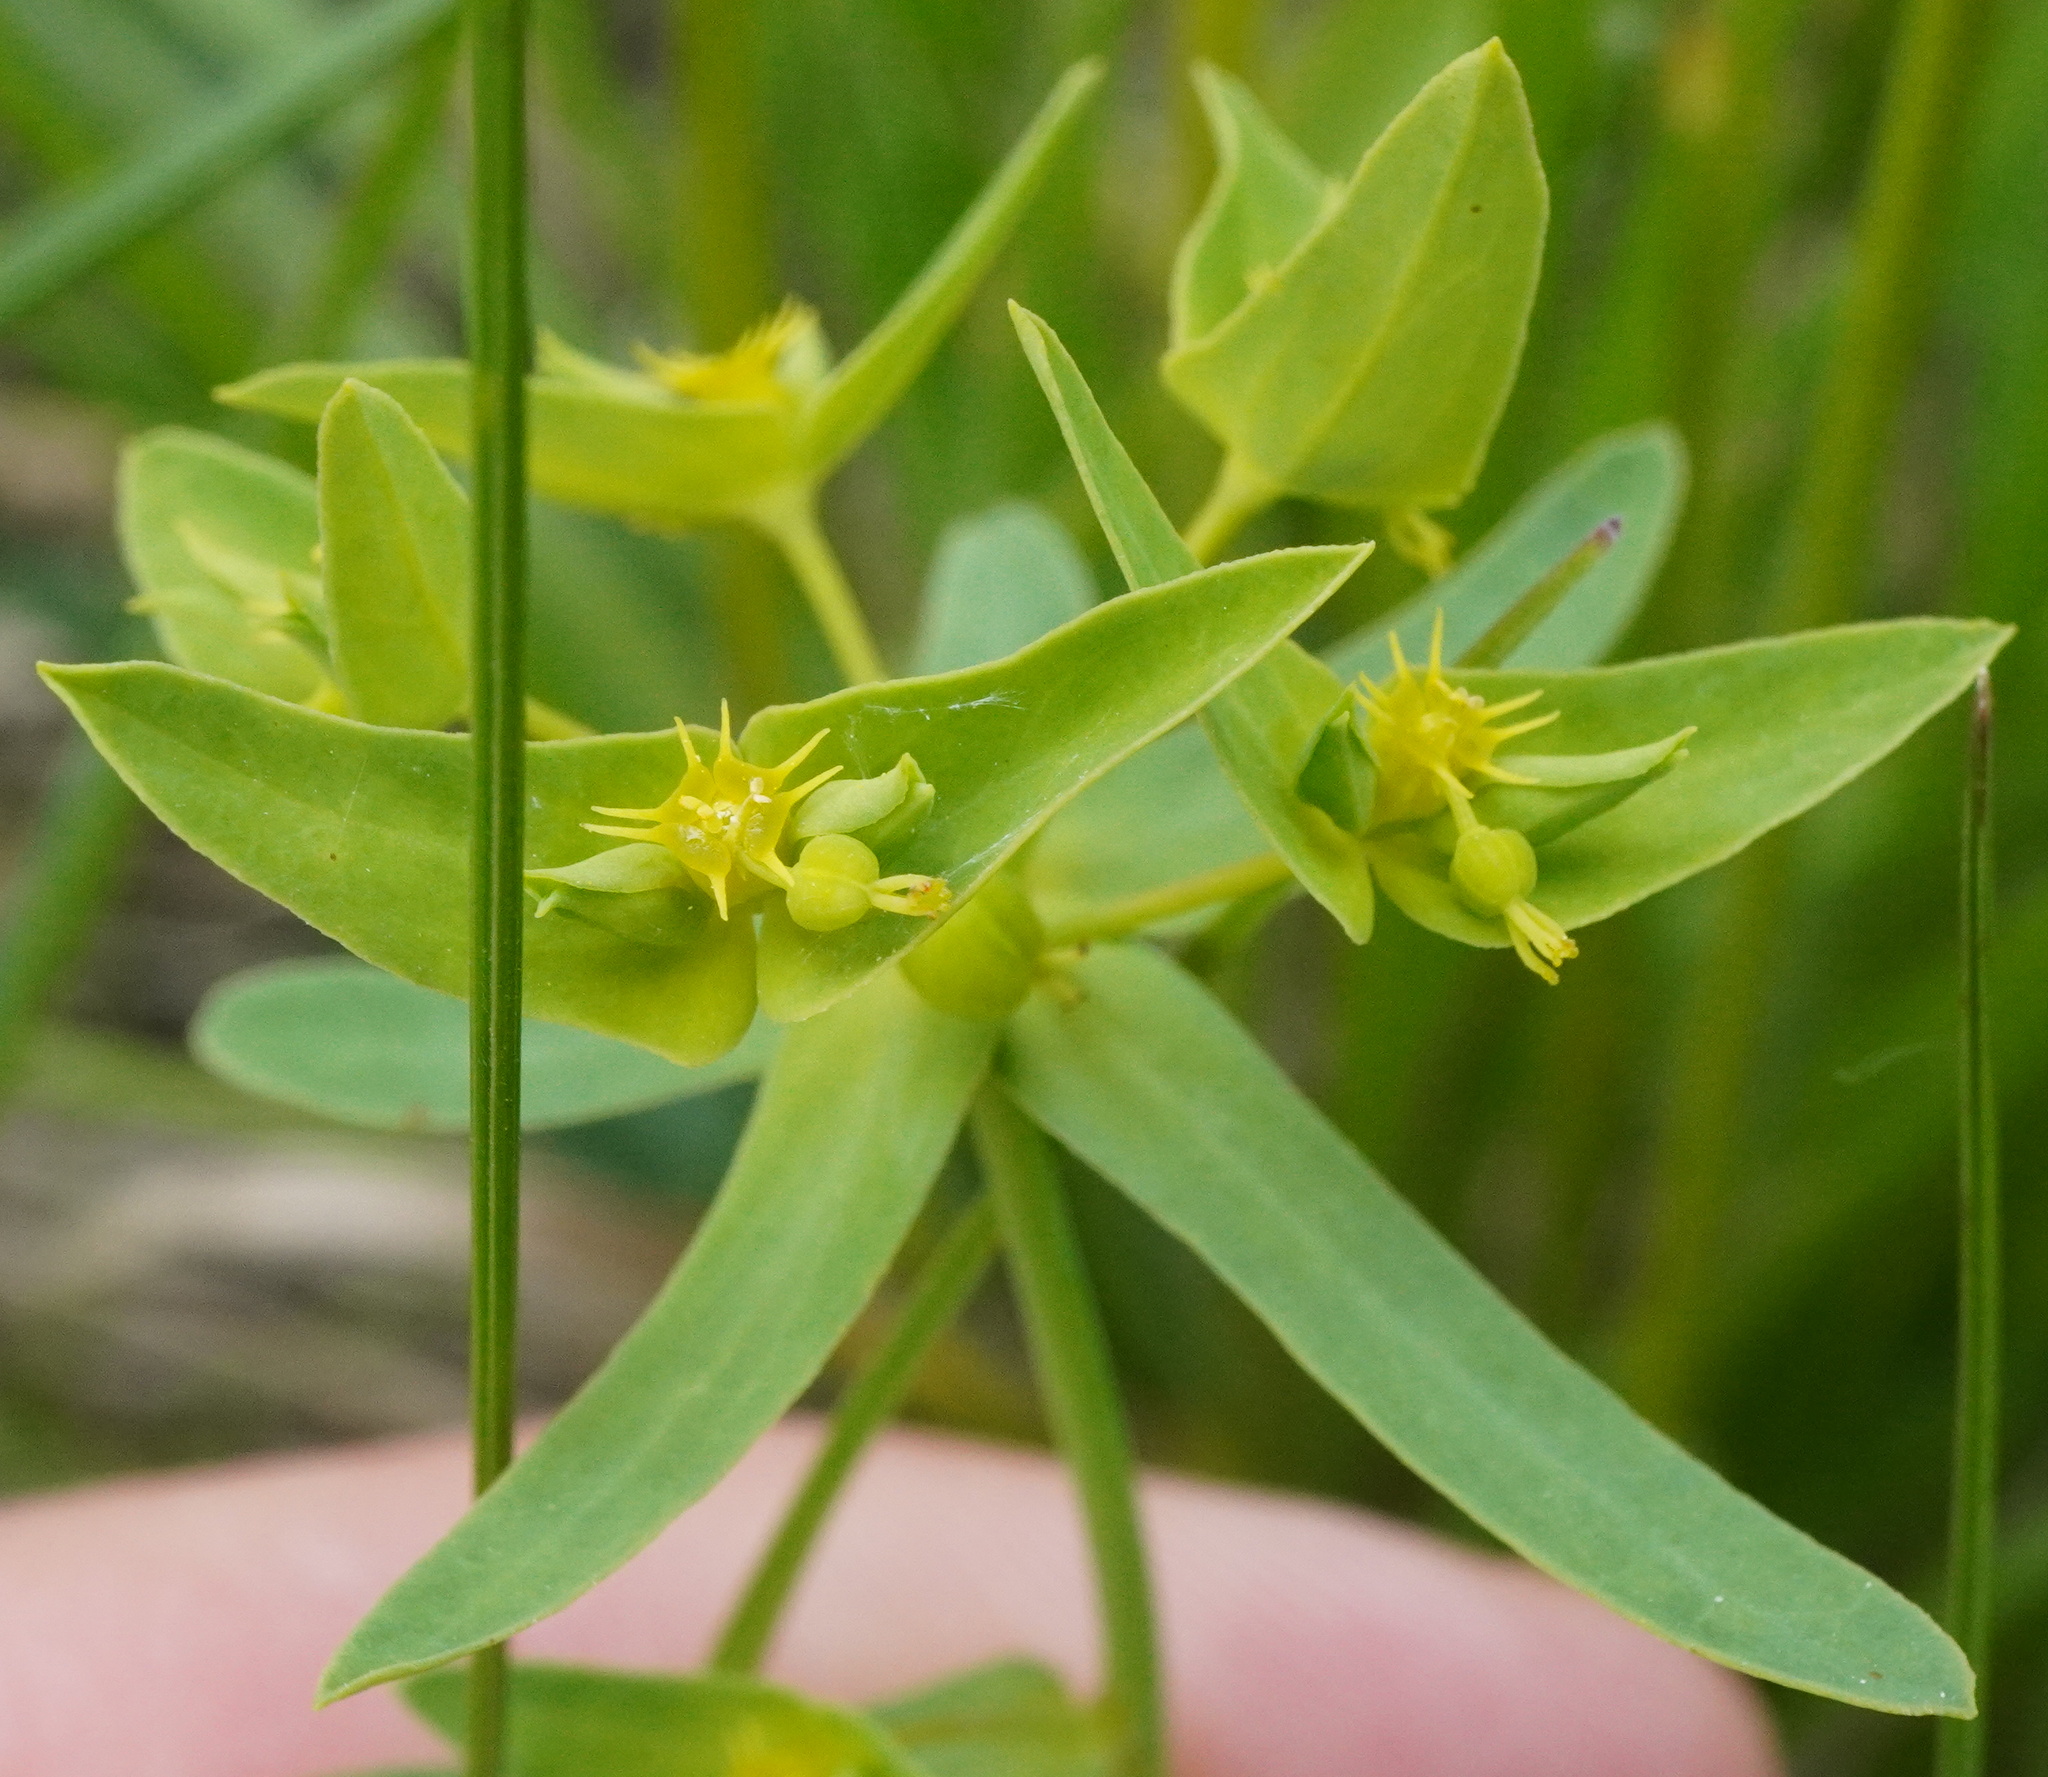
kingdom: Plantae
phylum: Tracheophyta
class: Magnoliopsida
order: Malpighiales
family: Euphorbiaceae
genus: Euphorbia
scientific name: Euphorbia taurinensis
